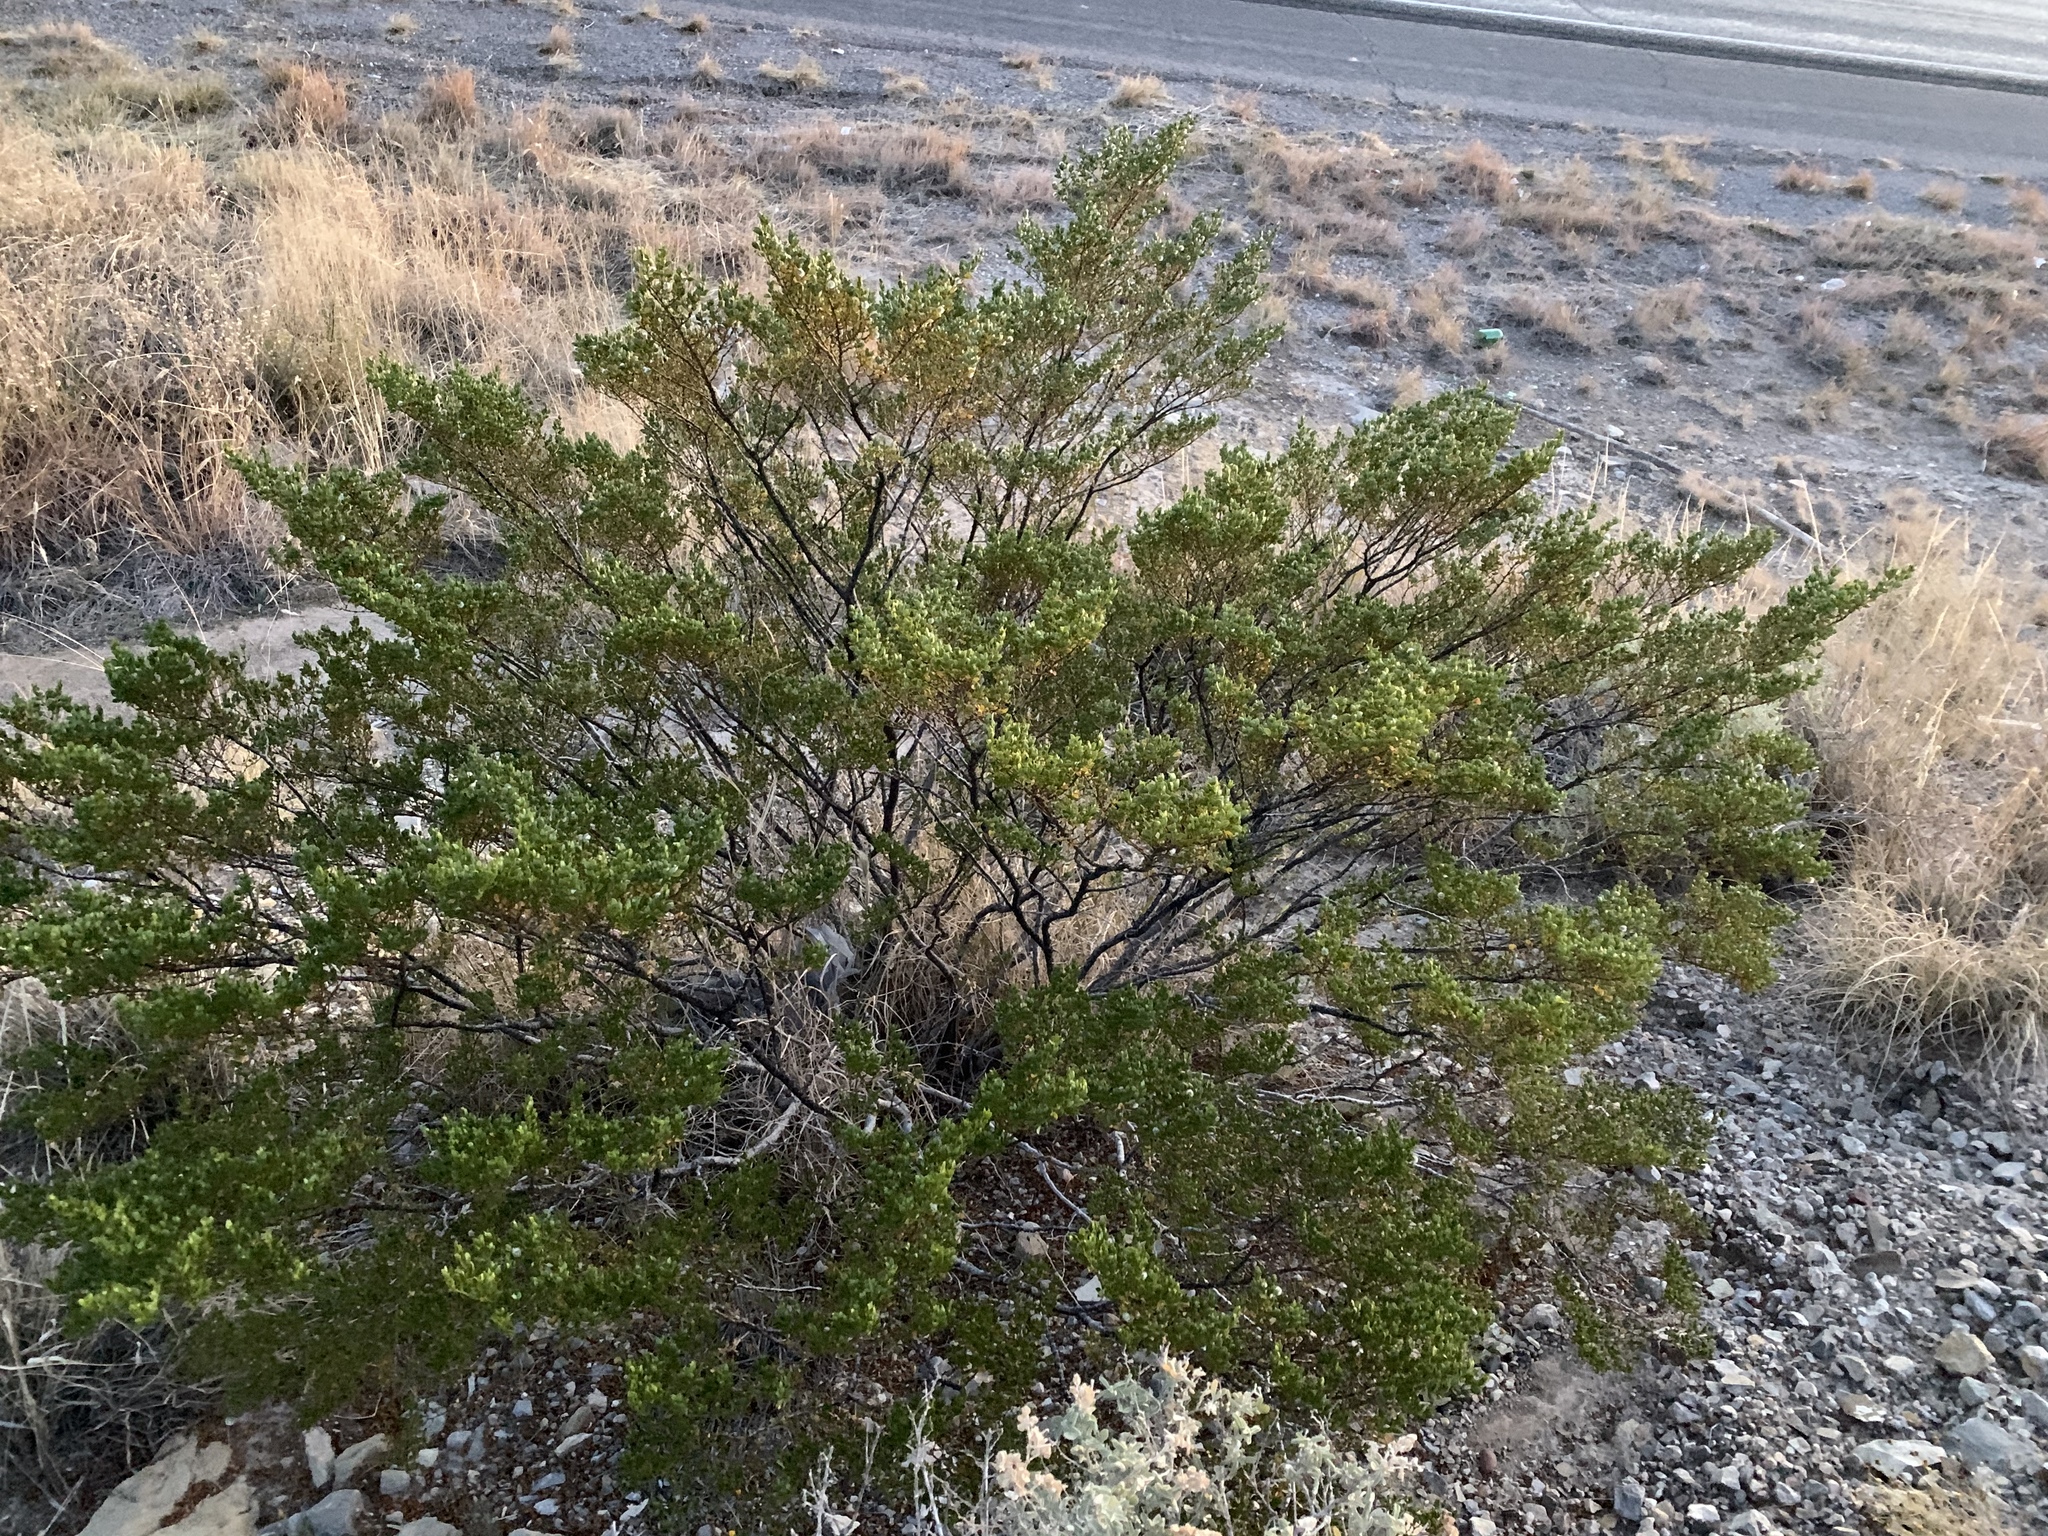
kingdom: Plantae
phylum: Tracheophyta
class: Magnoliopsida
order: Zygophyllales
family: Zygophyllaceae
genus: Larrea
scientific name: Larrea tridentata
